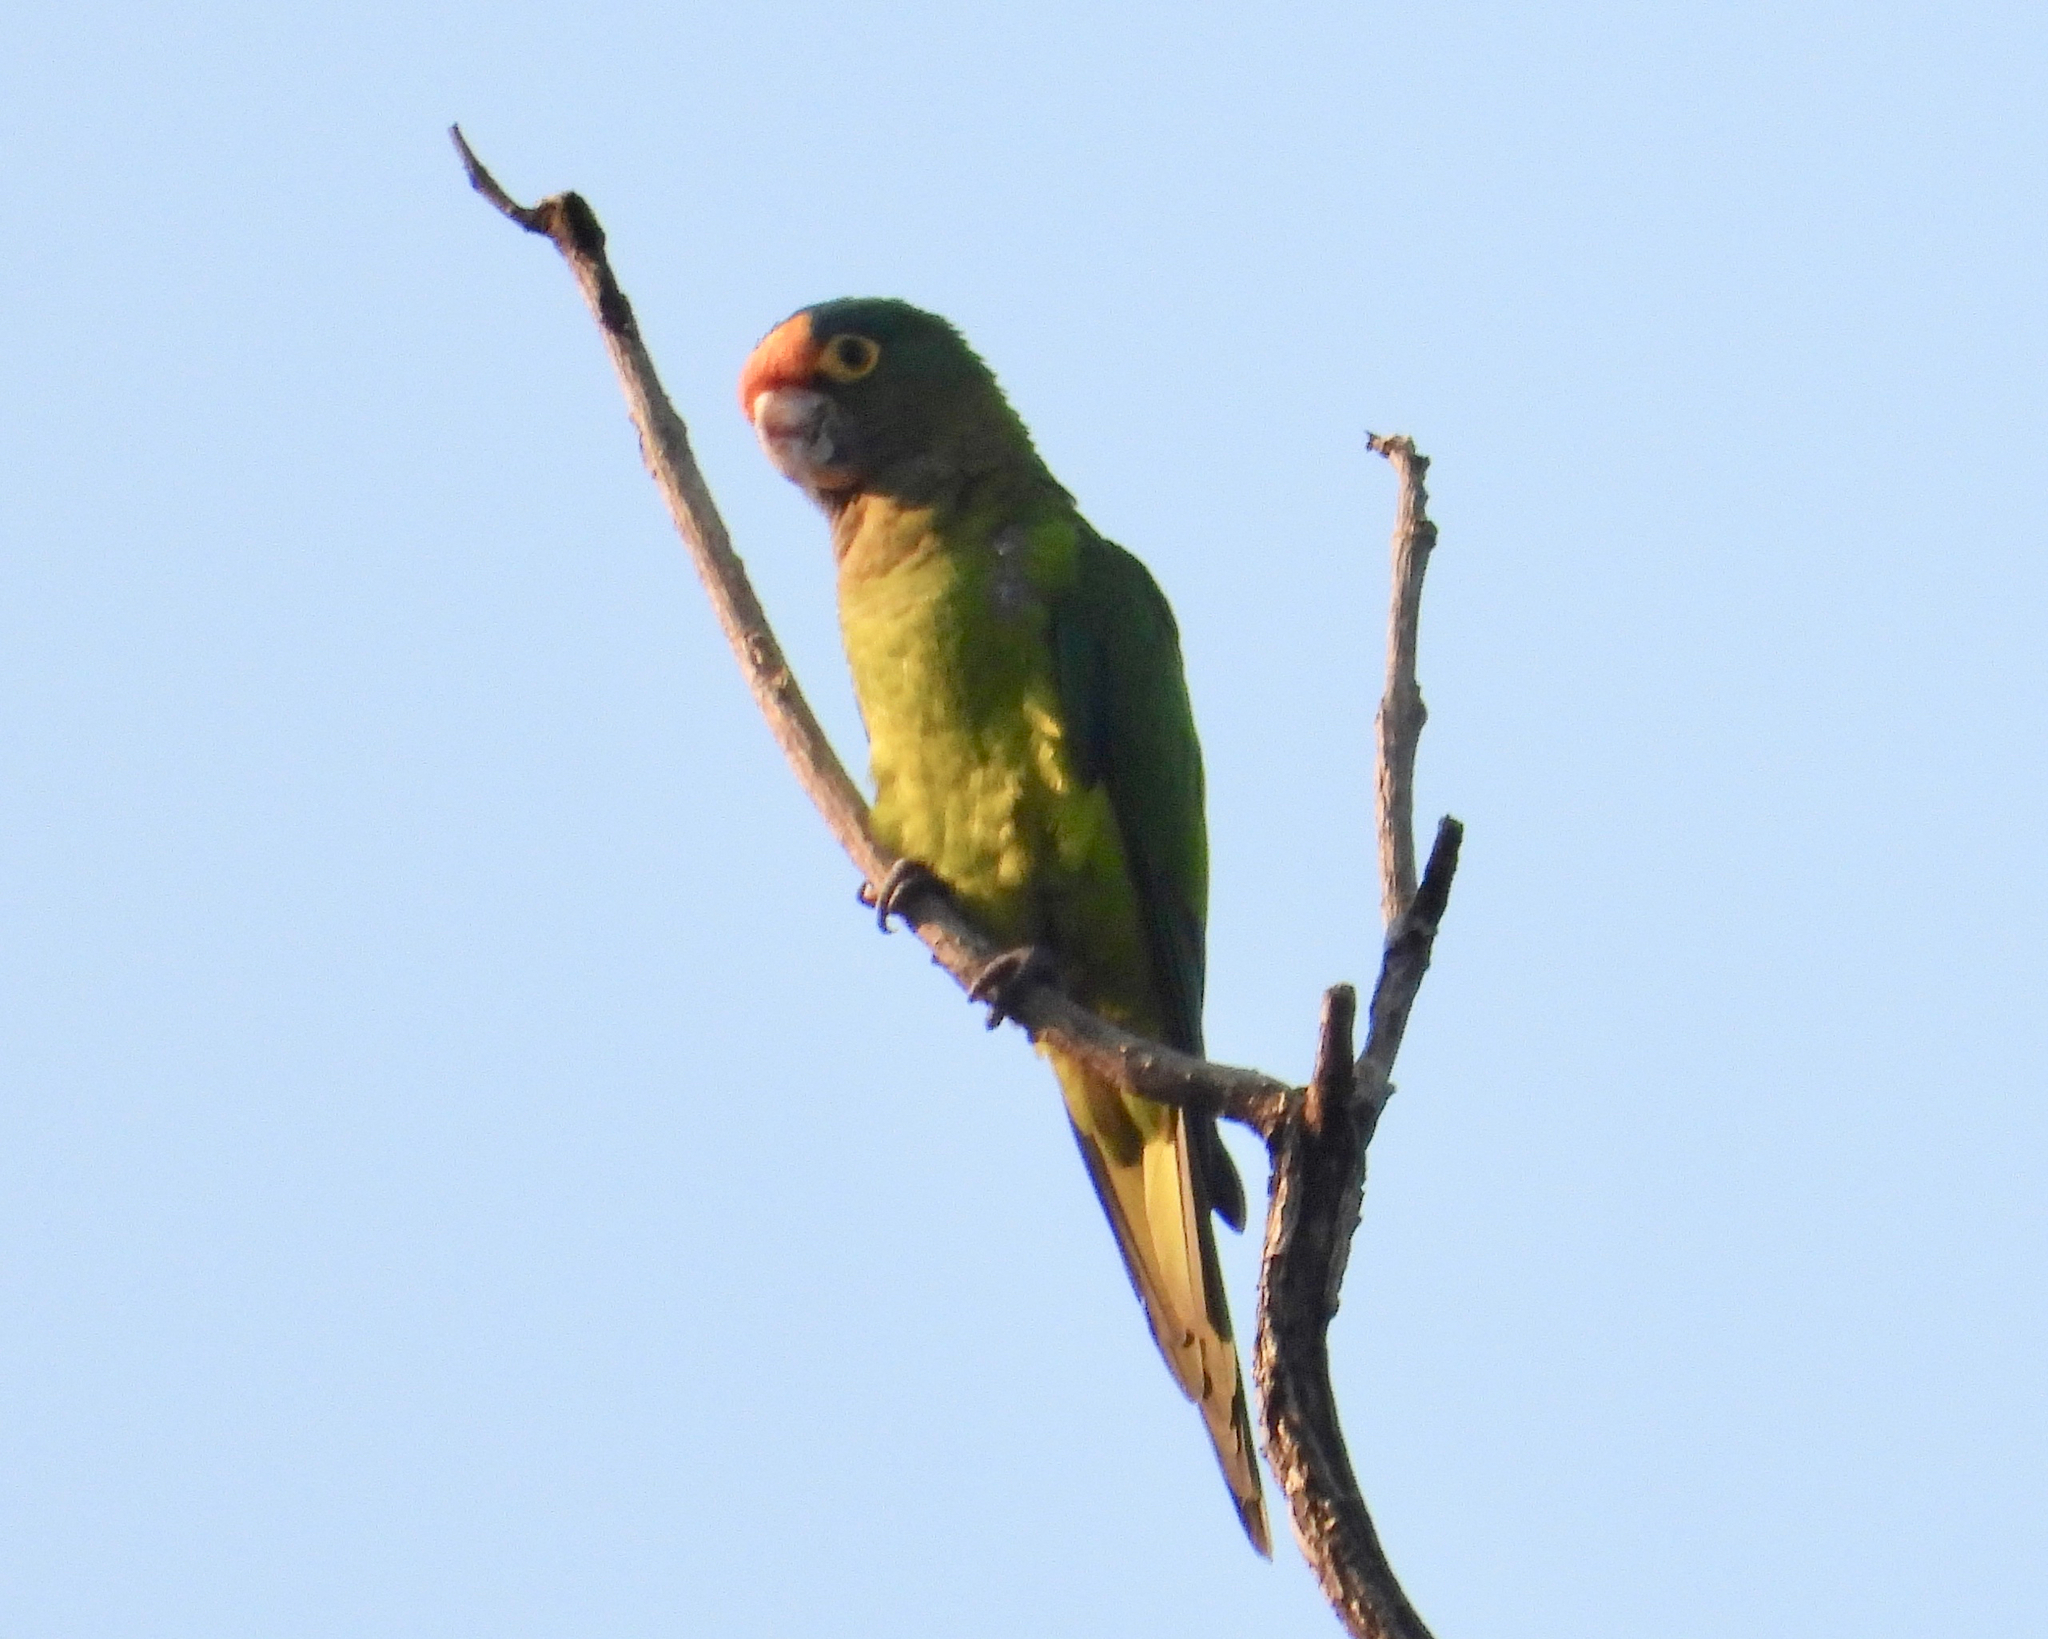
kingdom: Animalia
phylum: Chordata
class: Aves
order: Psittaciformes
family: Psittacidae
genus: Aratinga
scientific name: Aratinga canicularis
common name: Orange-fronted parakeet
